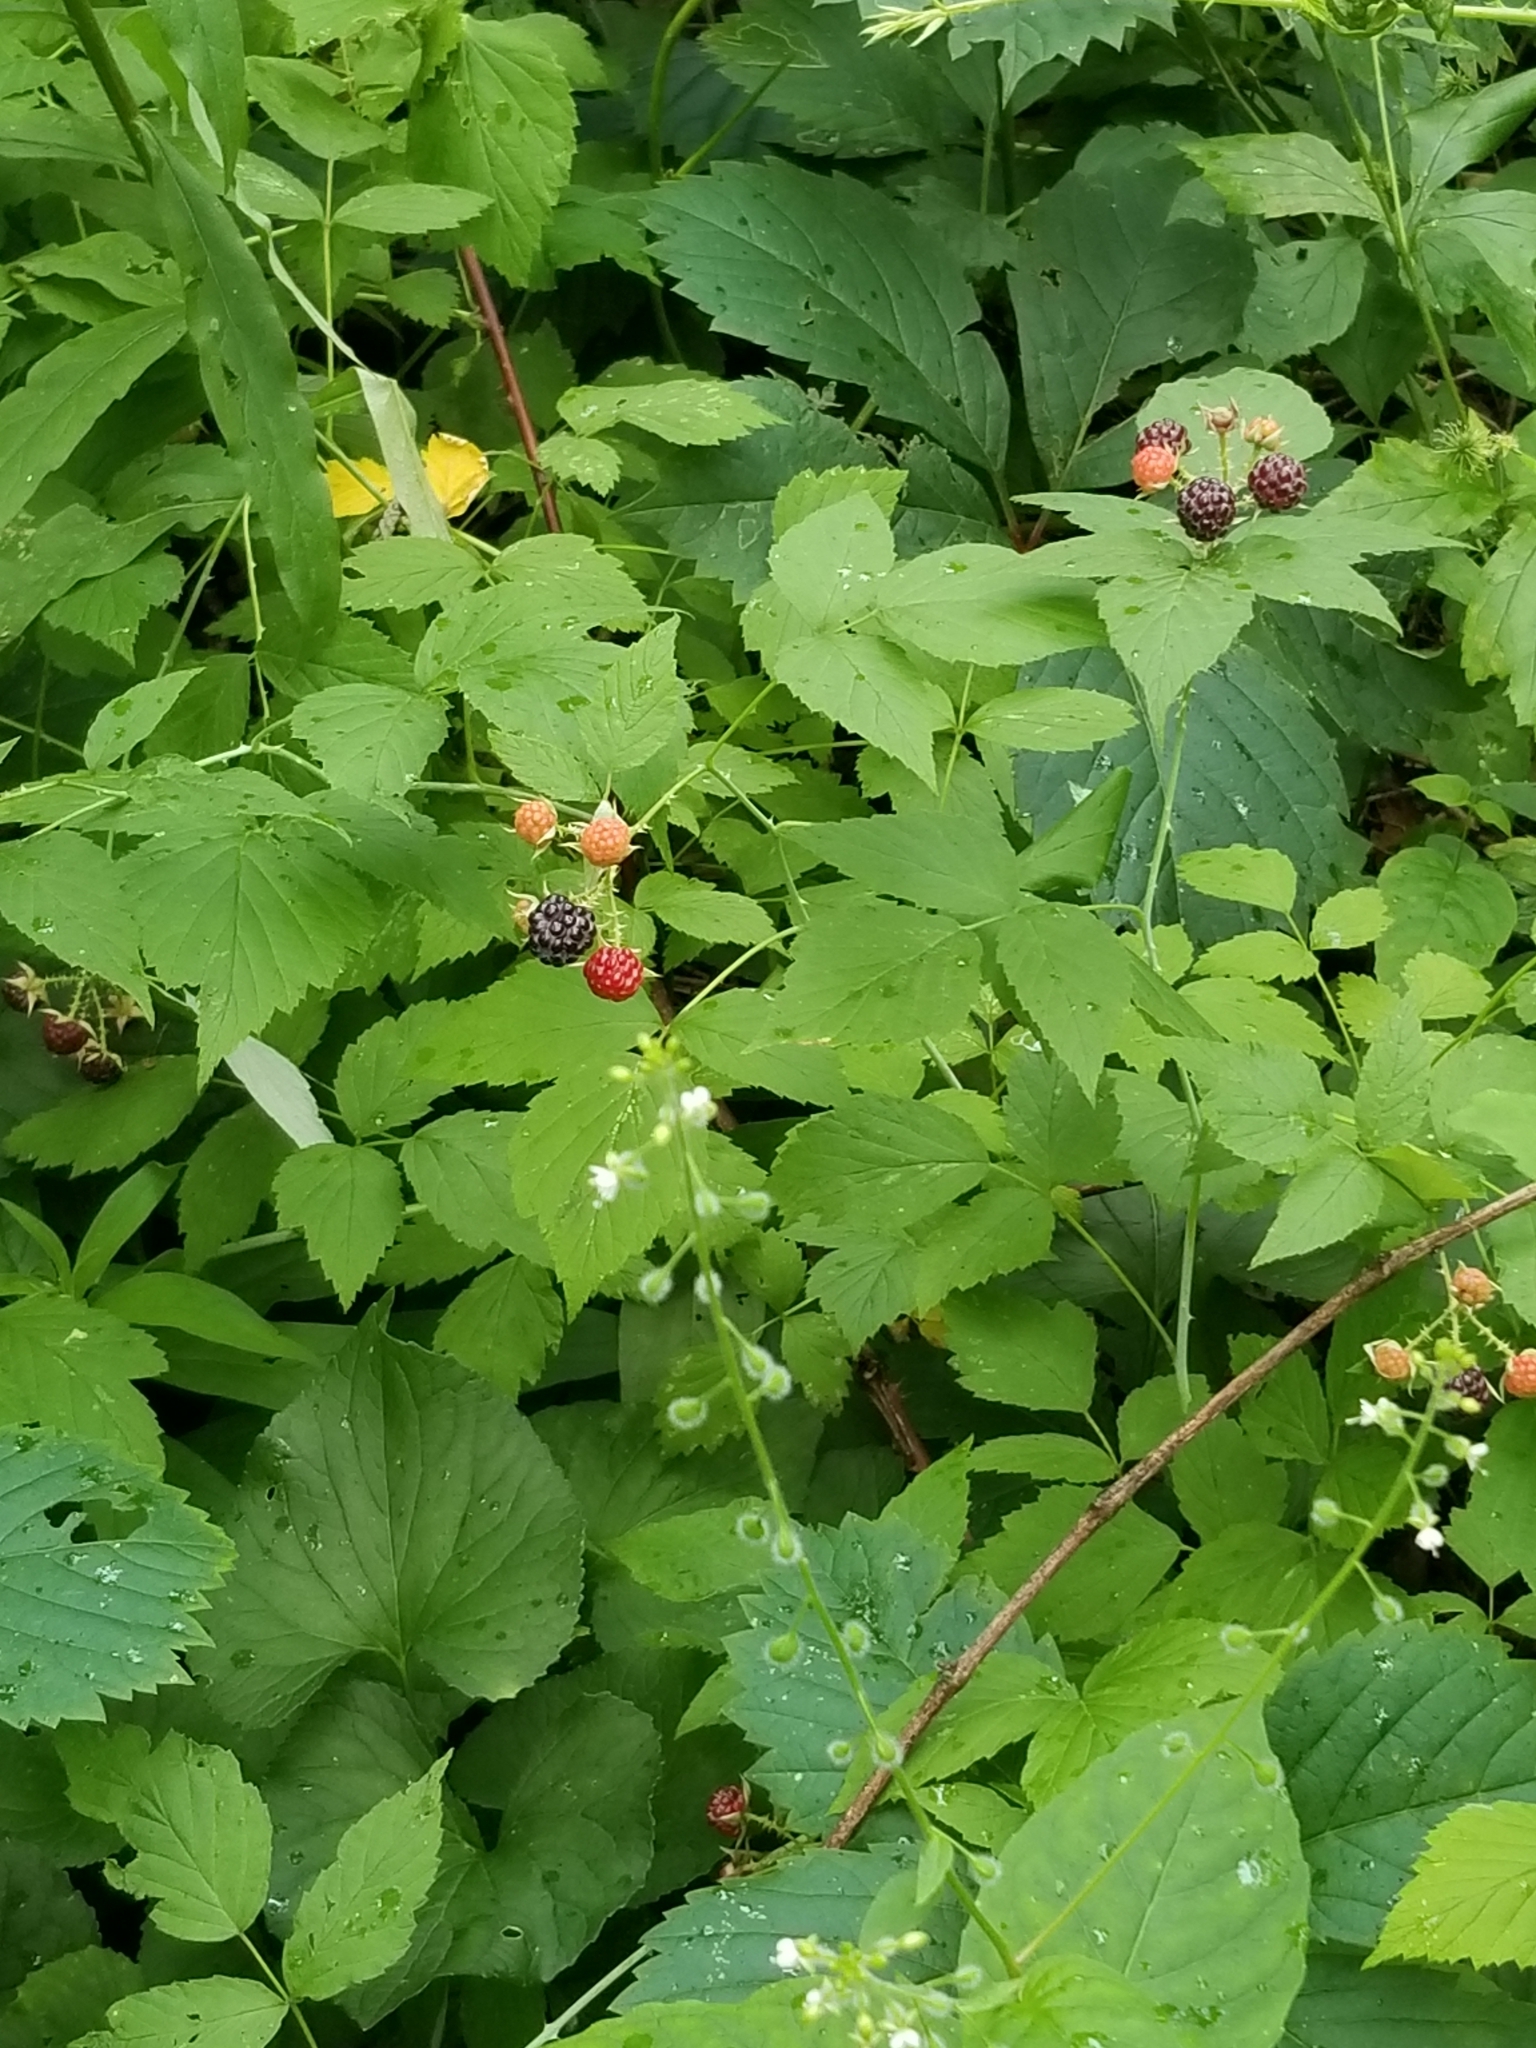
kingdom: Plantae
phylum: Tracheophyta
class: Magnoliopsida
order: Rosales
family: Rosaceae
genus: Rubus
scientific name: Rubus occidentalis
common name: Black raspberry
